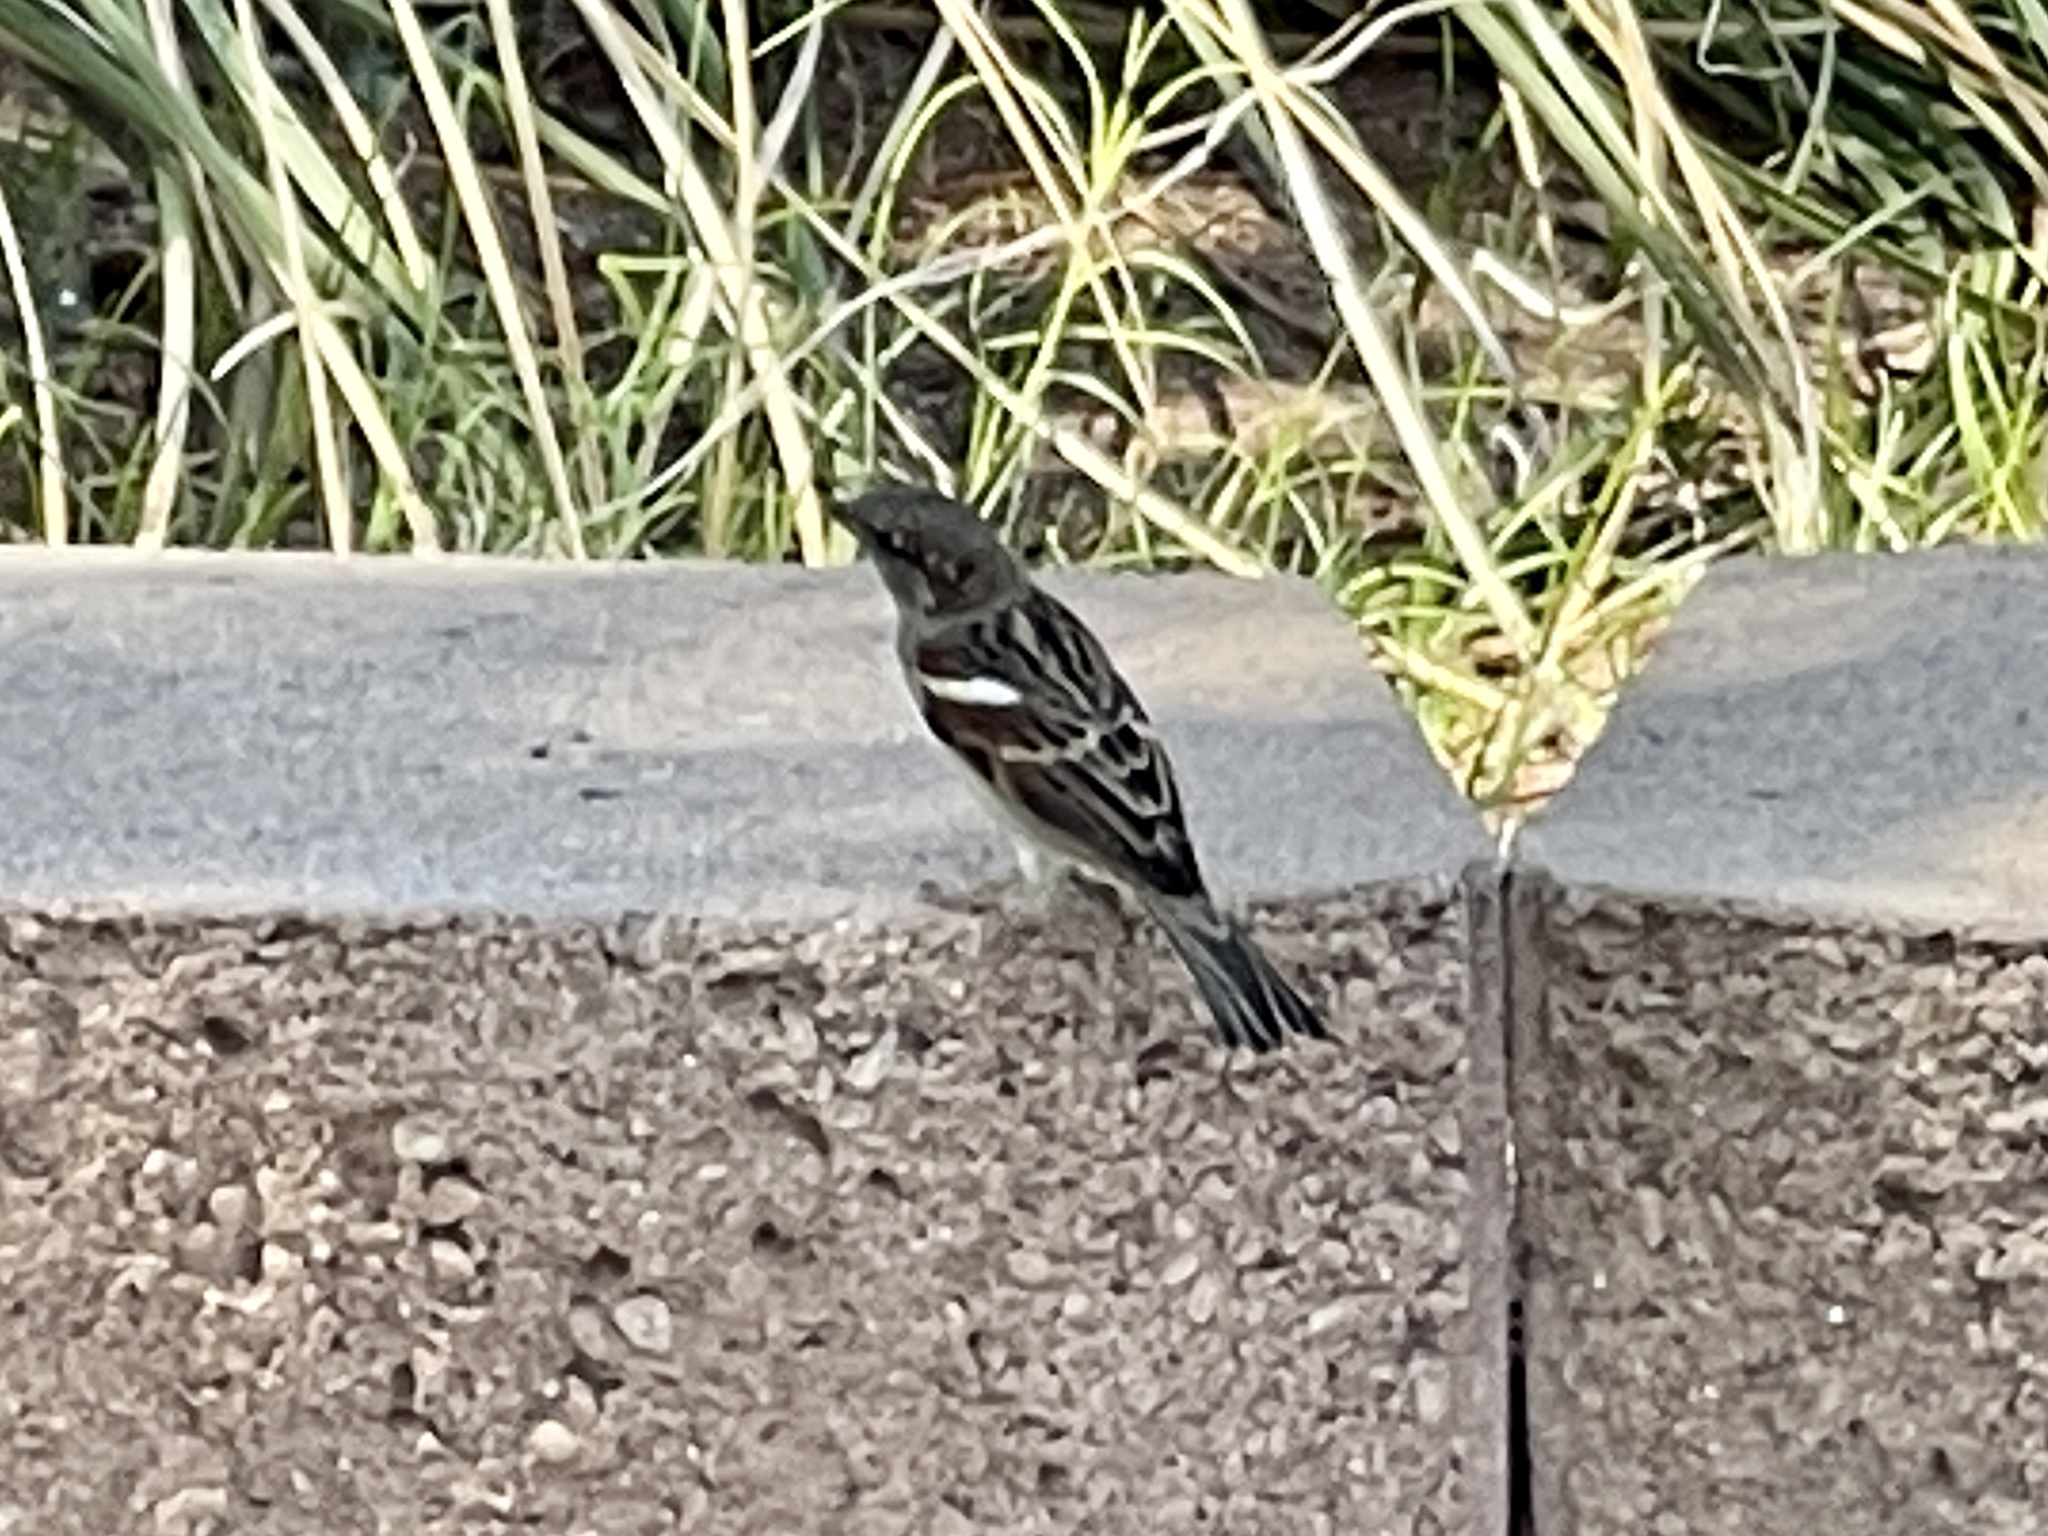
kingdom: Animalia
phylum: Chordata
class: Aves
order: Passeriformes
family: Passeridae
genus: Passer
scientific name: Passer domesticus
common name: House sparrow
